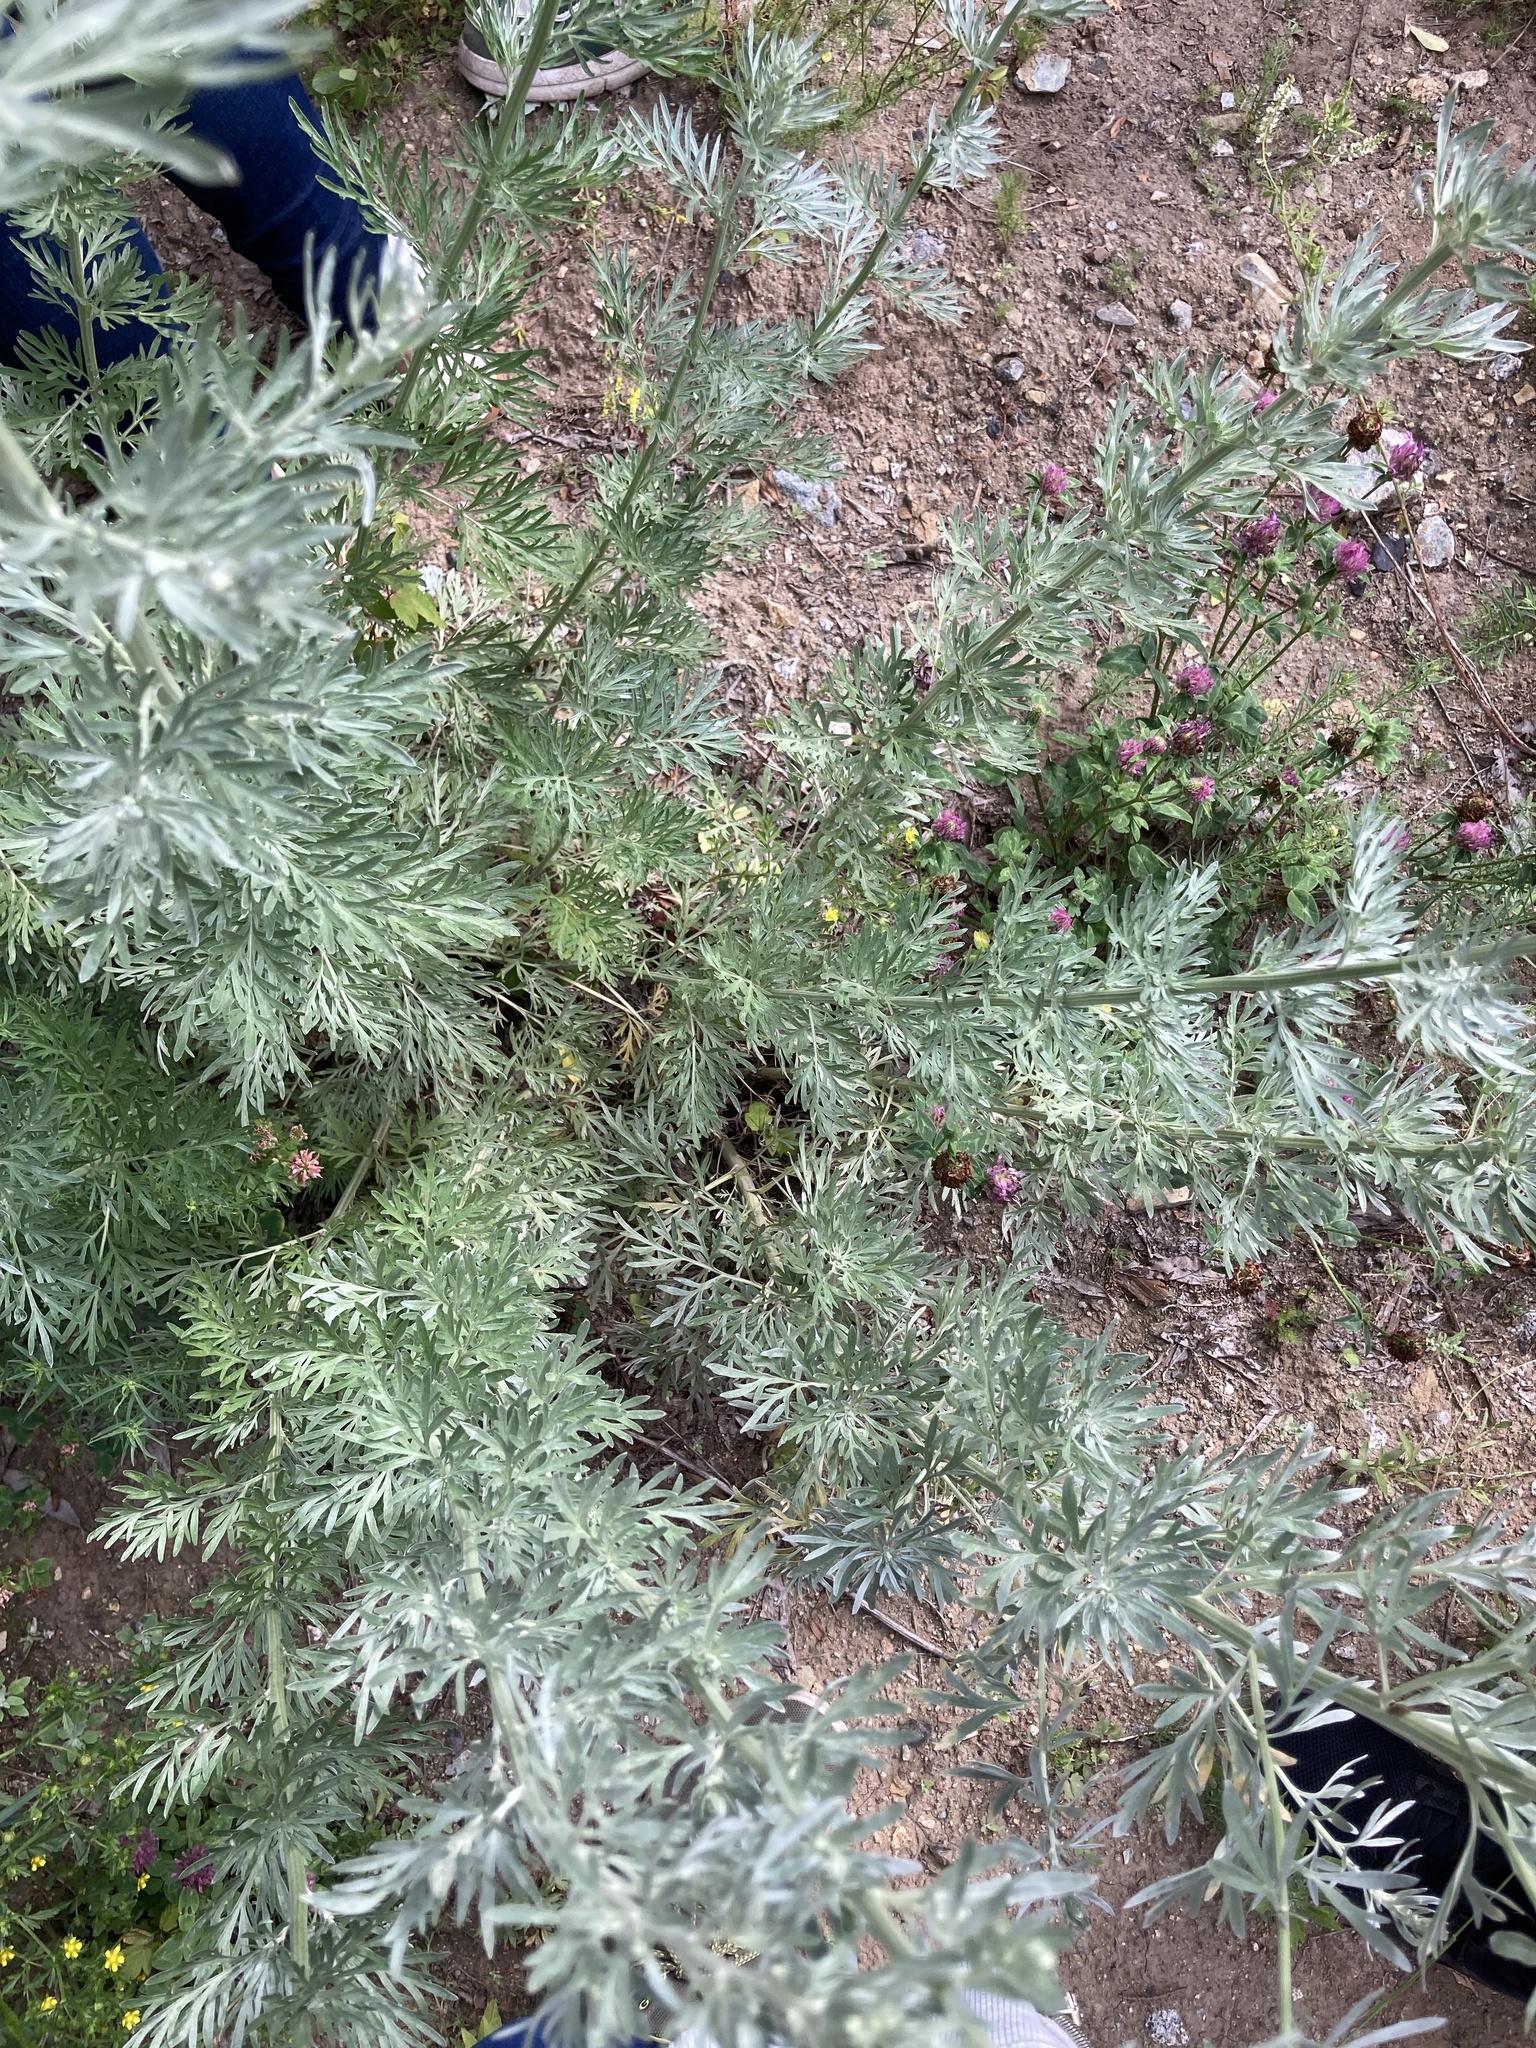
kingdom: Plantae
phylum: Tracheophyta
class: Magnoliopsida
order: Asterales
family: Asteraceae
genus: Artemisia
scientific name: Artemisia absinthium
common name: Wormwood
